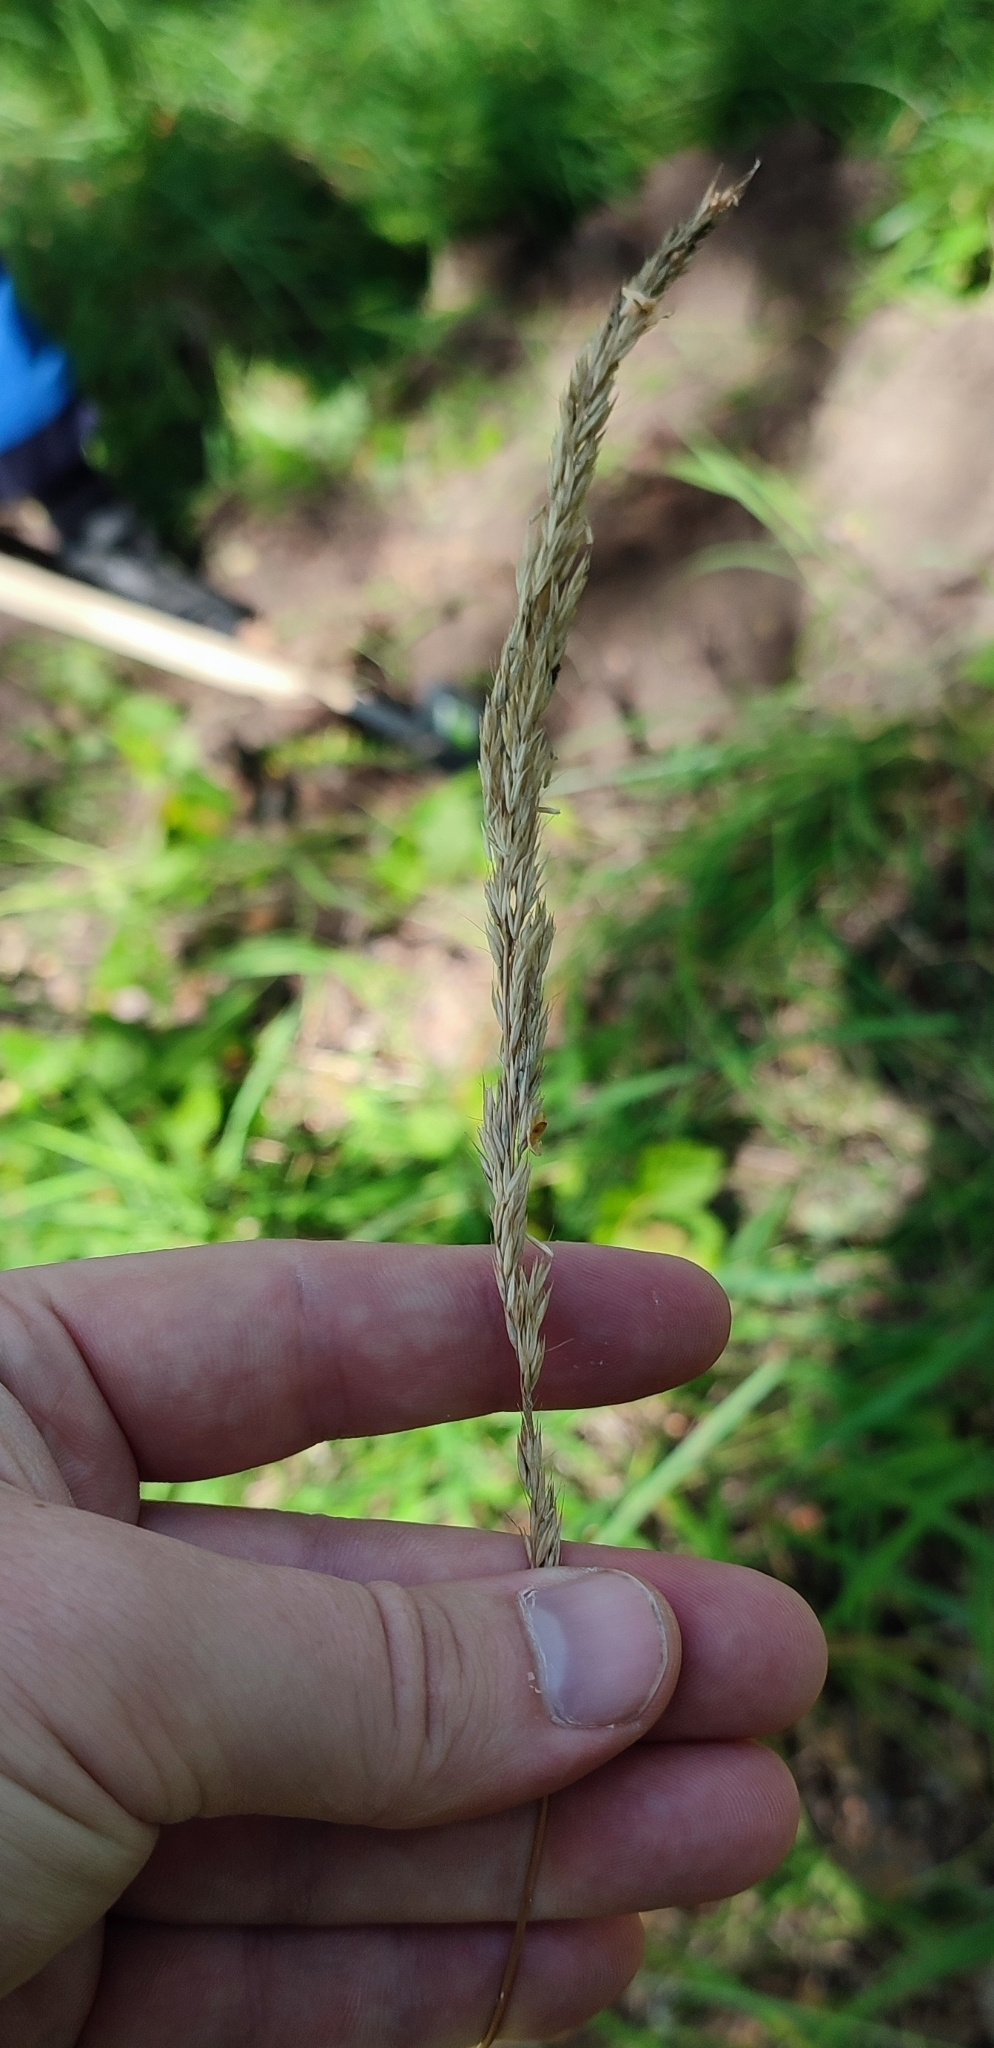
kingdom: Plantae
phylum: Tracheophyta
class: Liliopsida
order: Poales
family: Poaceae
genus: Calamagrostis
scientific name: Calamagrostis arundinacea
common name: Metskastik
